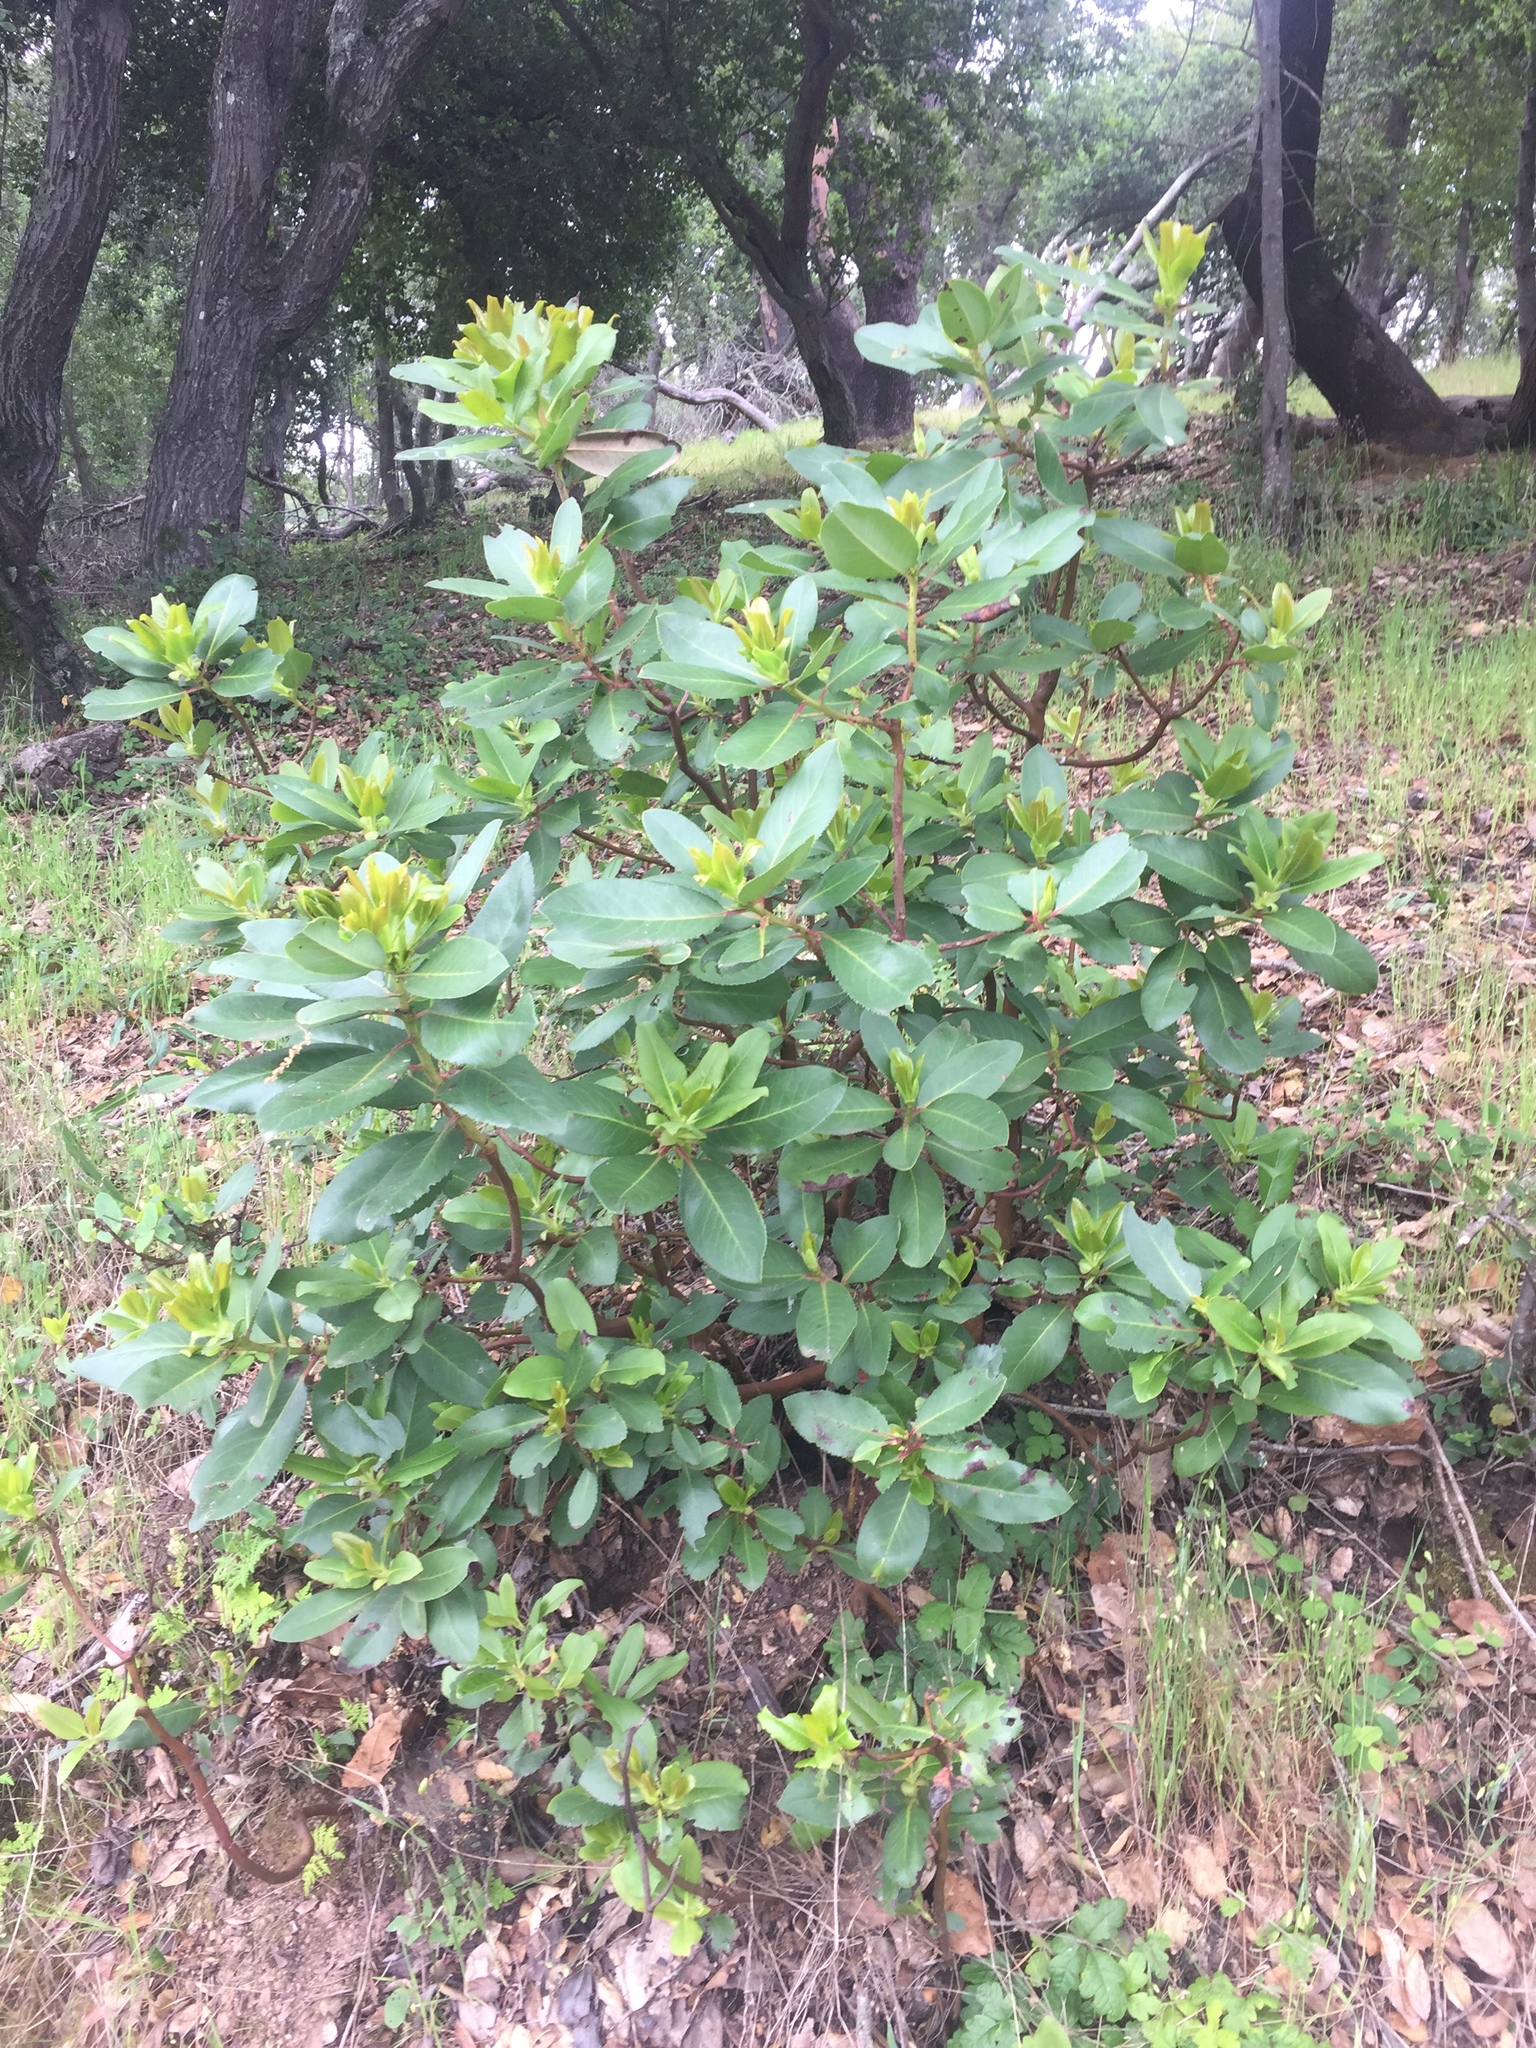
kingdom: Plantae
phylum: Tracheophyta
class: Magnoliopsida
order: Ericales
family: Ericaceae
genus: Arbutus
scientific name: Arbutus menziesii
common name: Pacific madrone
